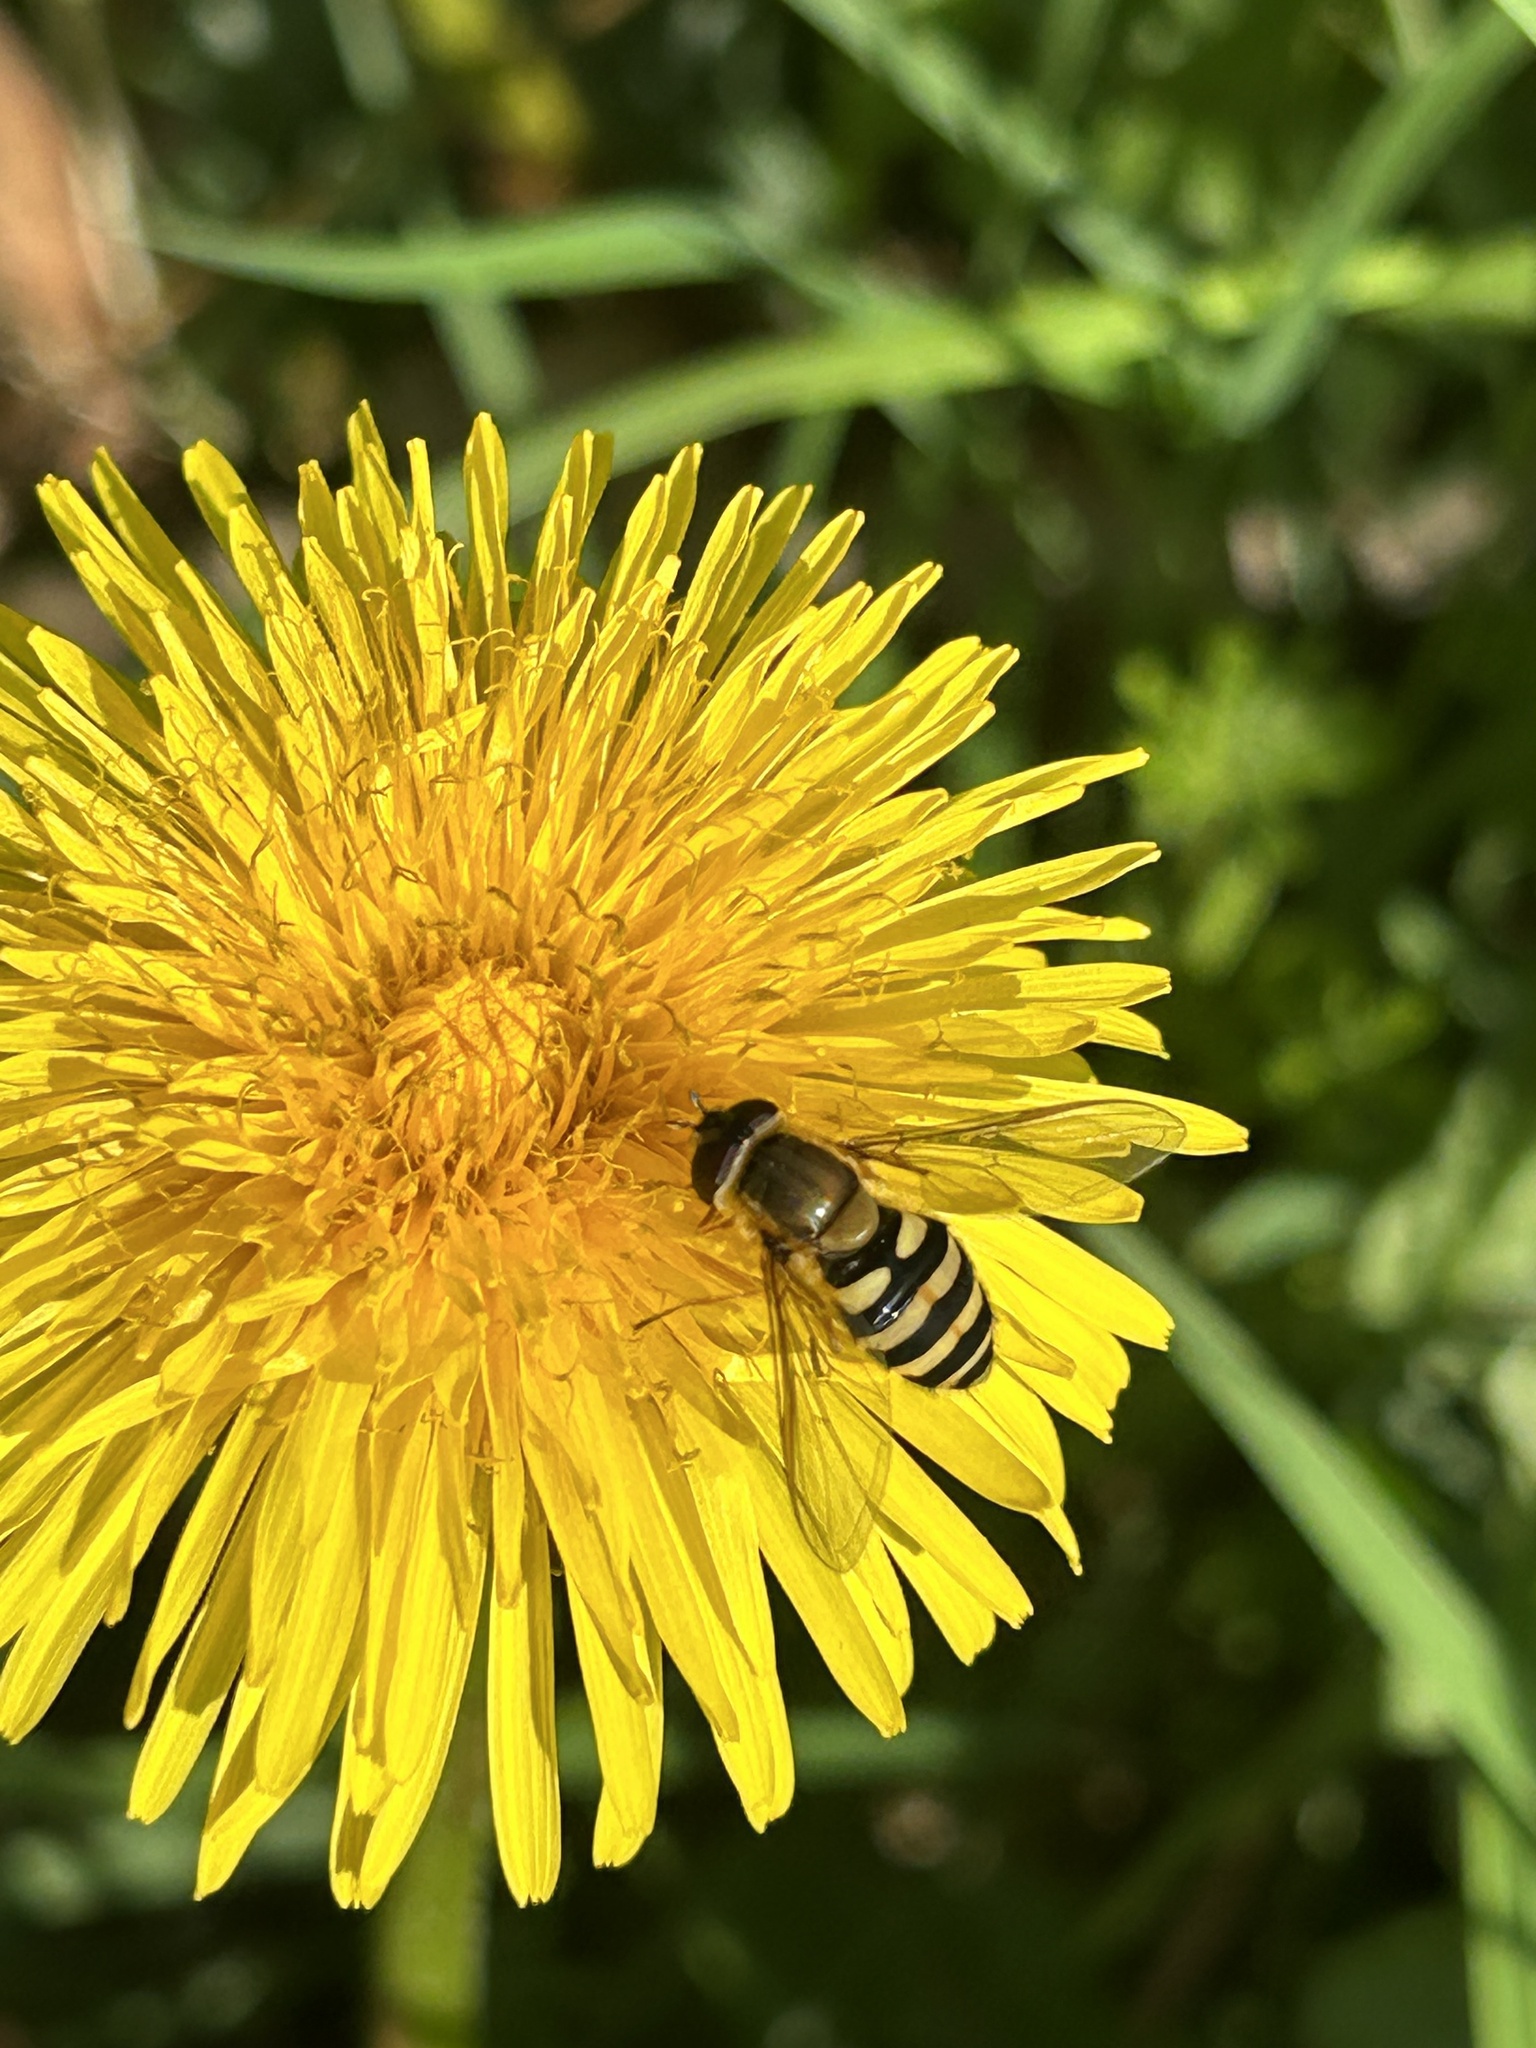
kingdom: Animalia
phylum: Arthropoda
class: Insecta
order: Diptera
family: Syrphidae
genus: Syrphus
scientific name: Syrphus
